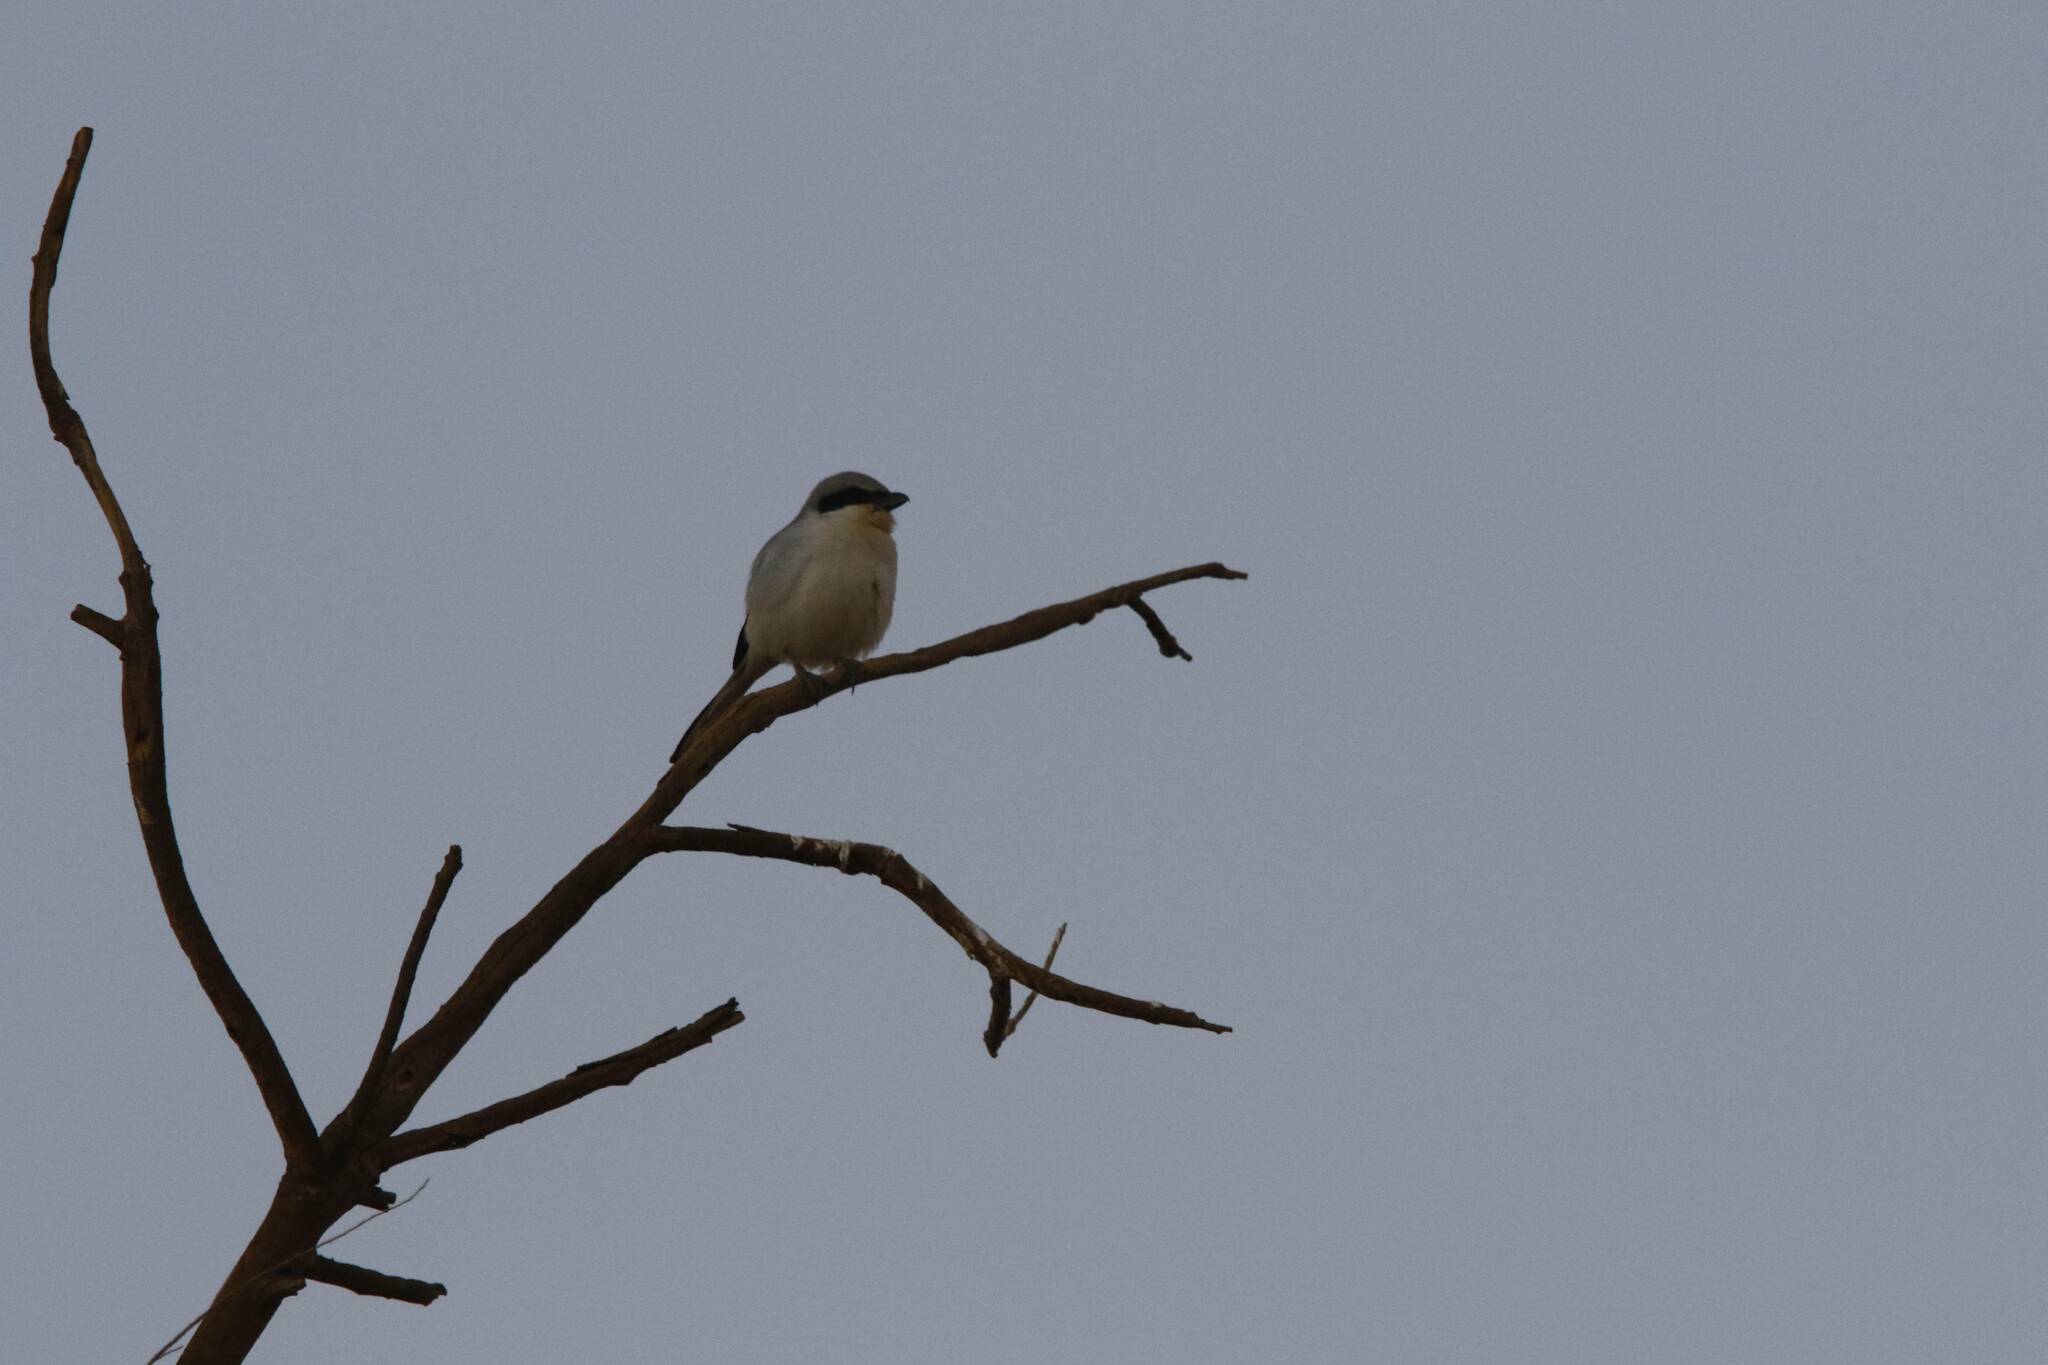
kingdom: Animalia
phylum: Chordata
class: Aves
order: Passeriformes
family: Laniidae
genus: Lanius
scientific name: Lanius excubitor
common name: Great grey shrike
